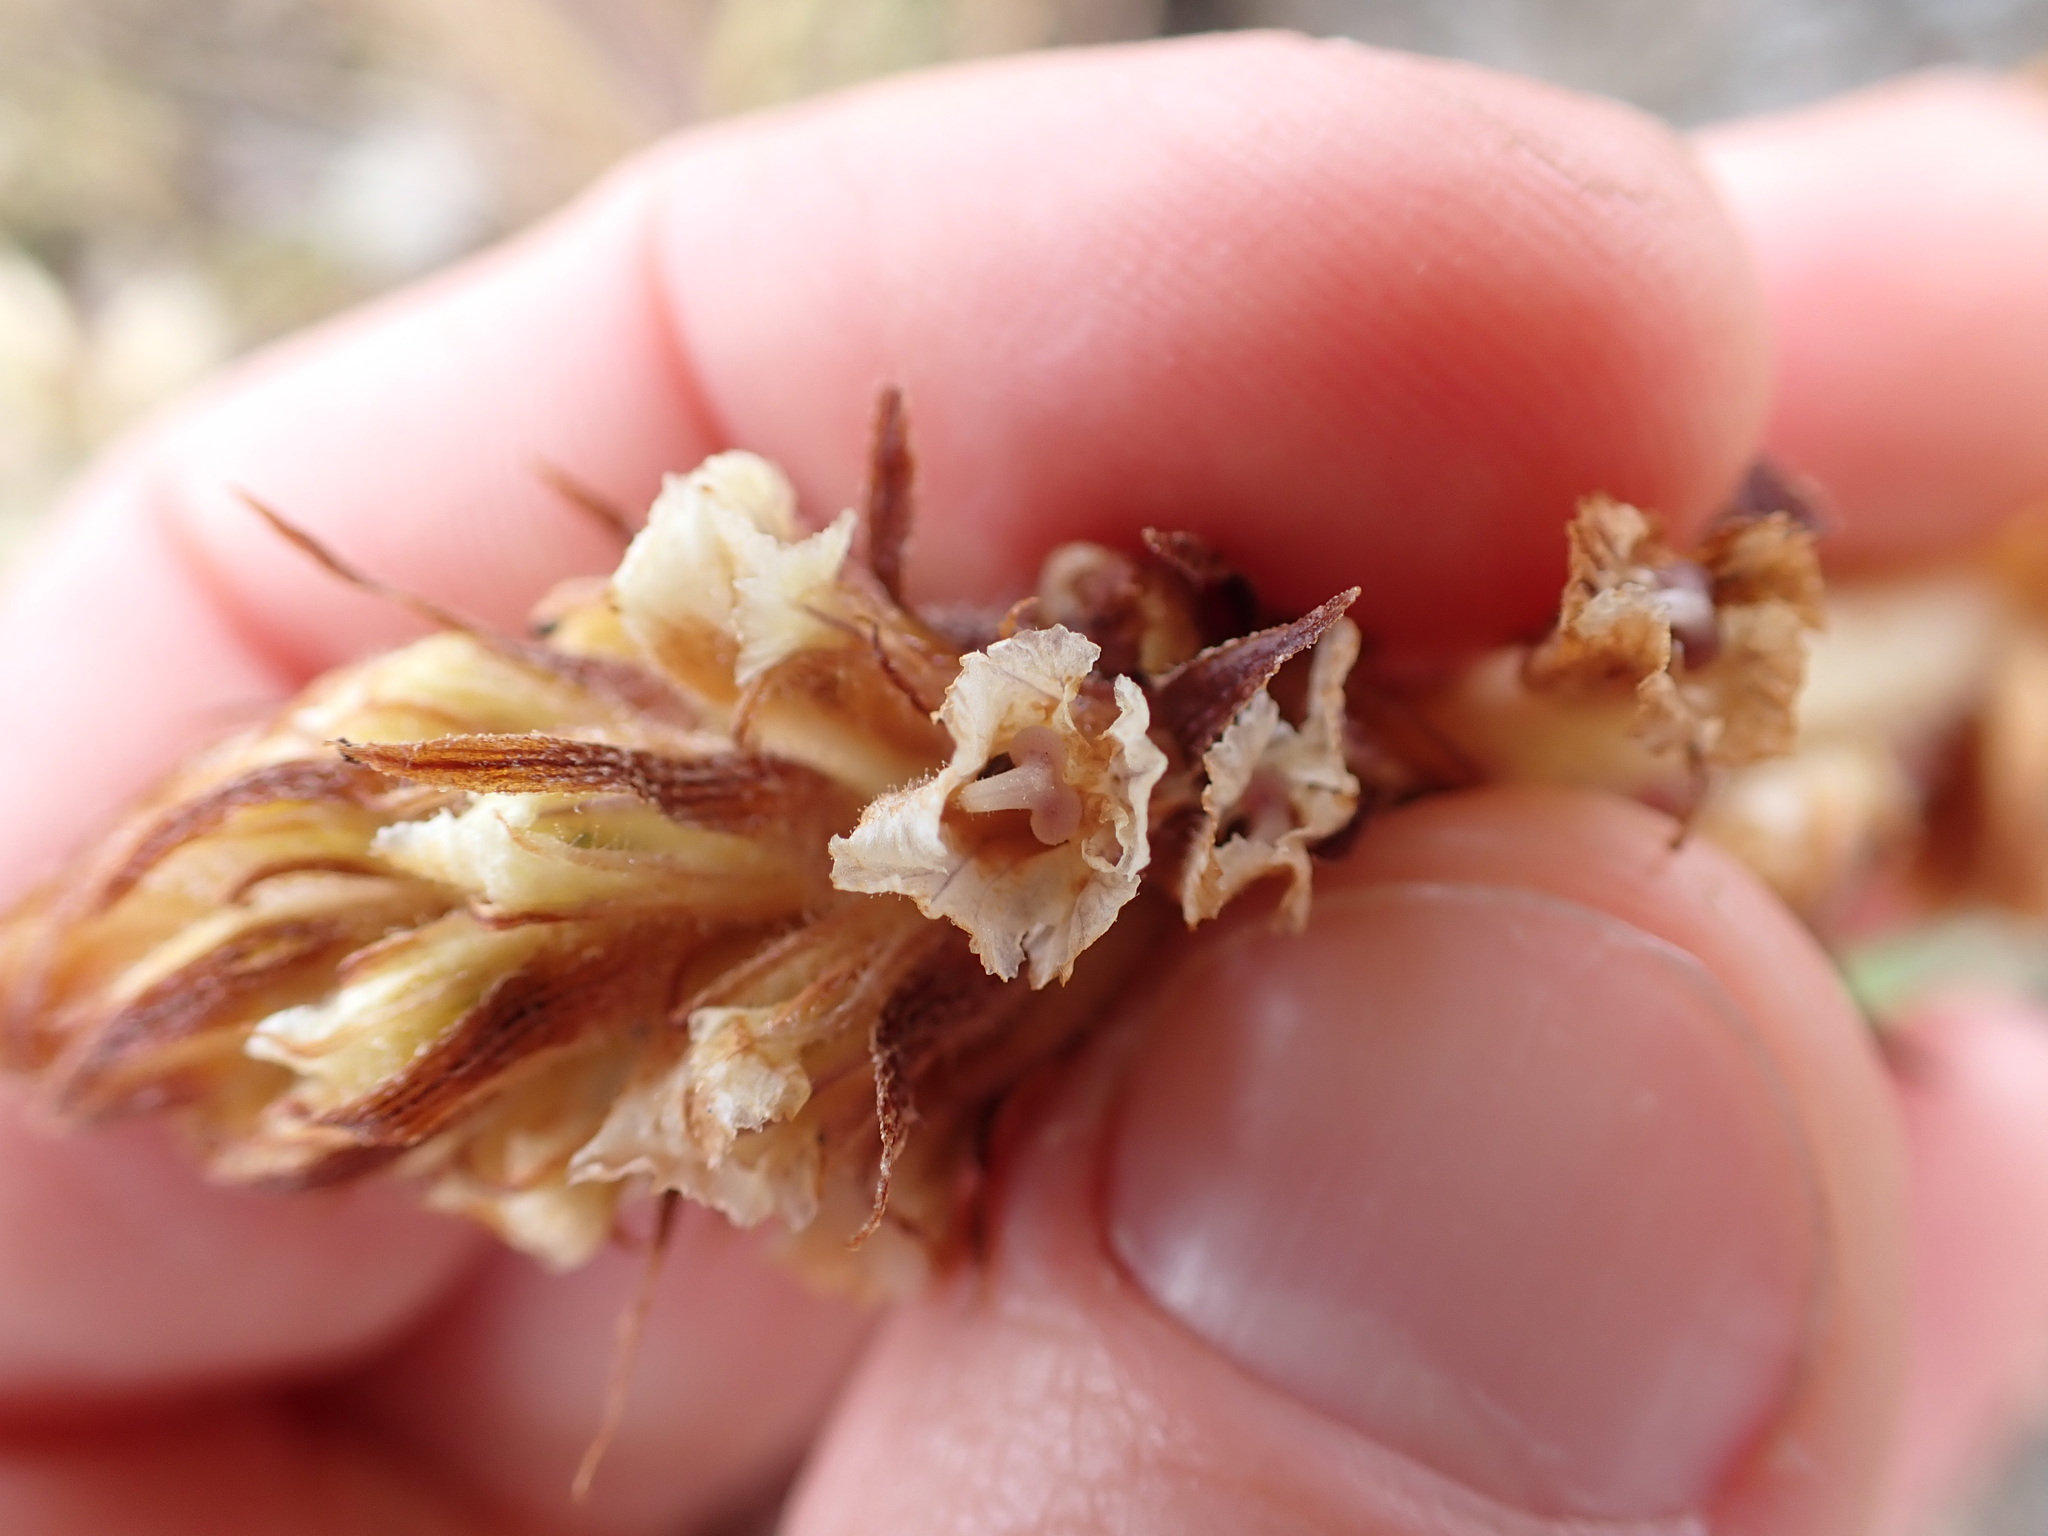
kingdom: Plantae
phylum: Tracheophyta
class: Magnoliopsida
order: Lamiales
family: Orobanchaceae
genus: Orobanche
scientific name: Orobanche minor
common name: Common broomrape
